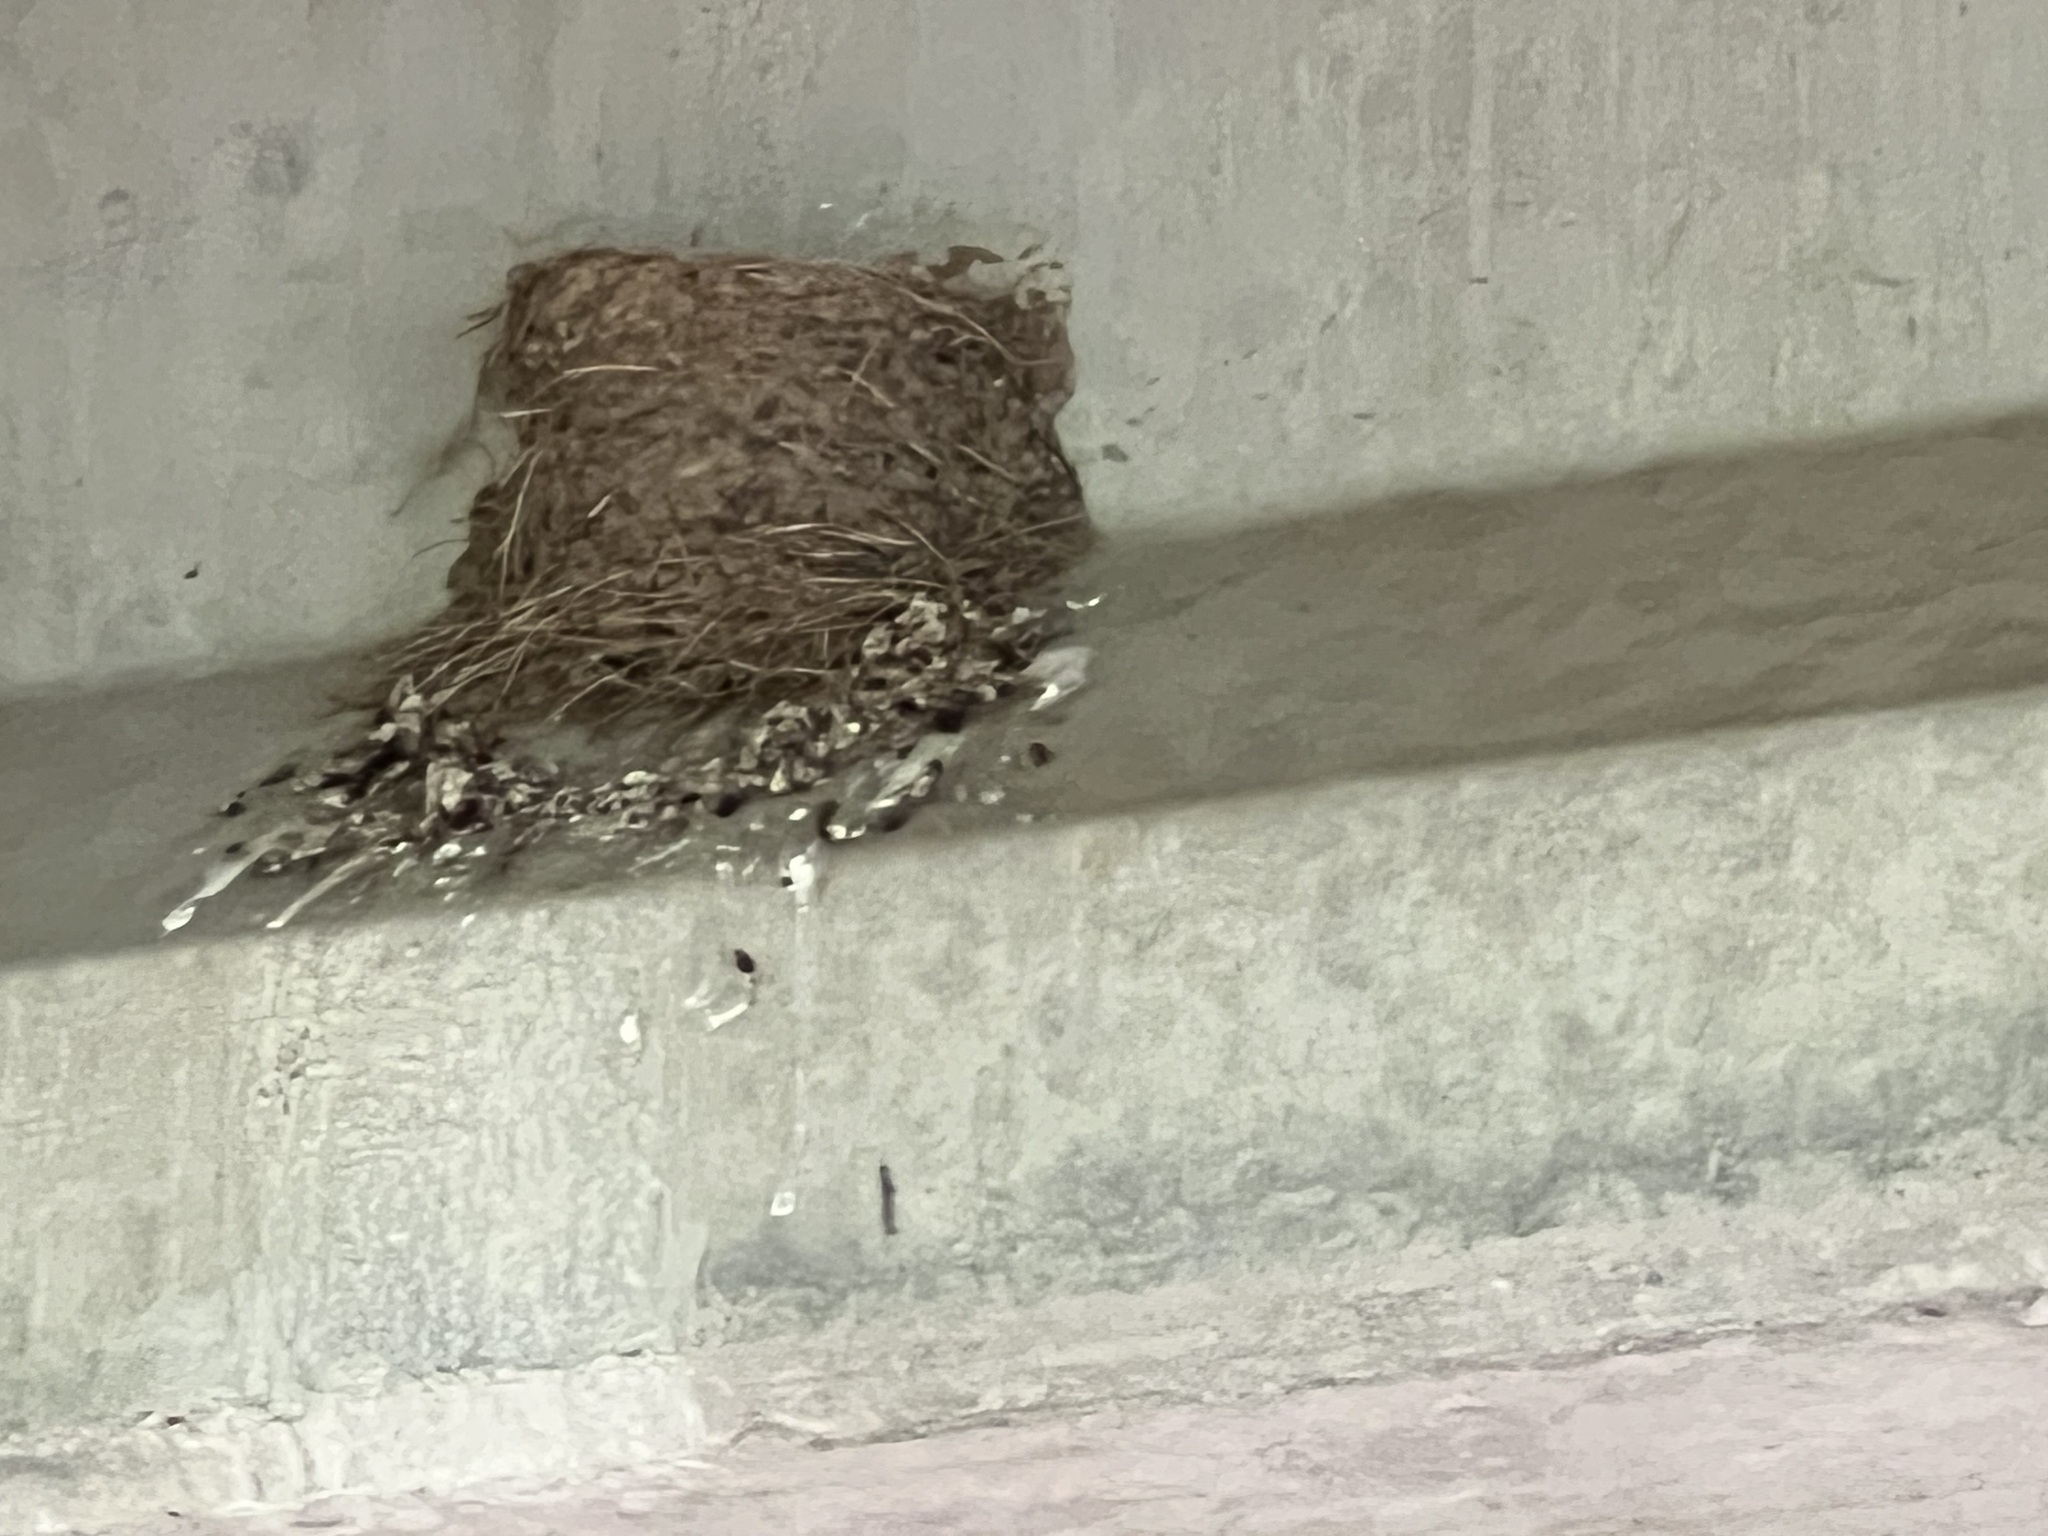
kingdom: Animalia
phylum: Chordata
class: Aves
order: Passeriformes
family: Hirundinidae
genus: Hirundo
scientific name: Hirundo rustica
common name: Barn swallow
